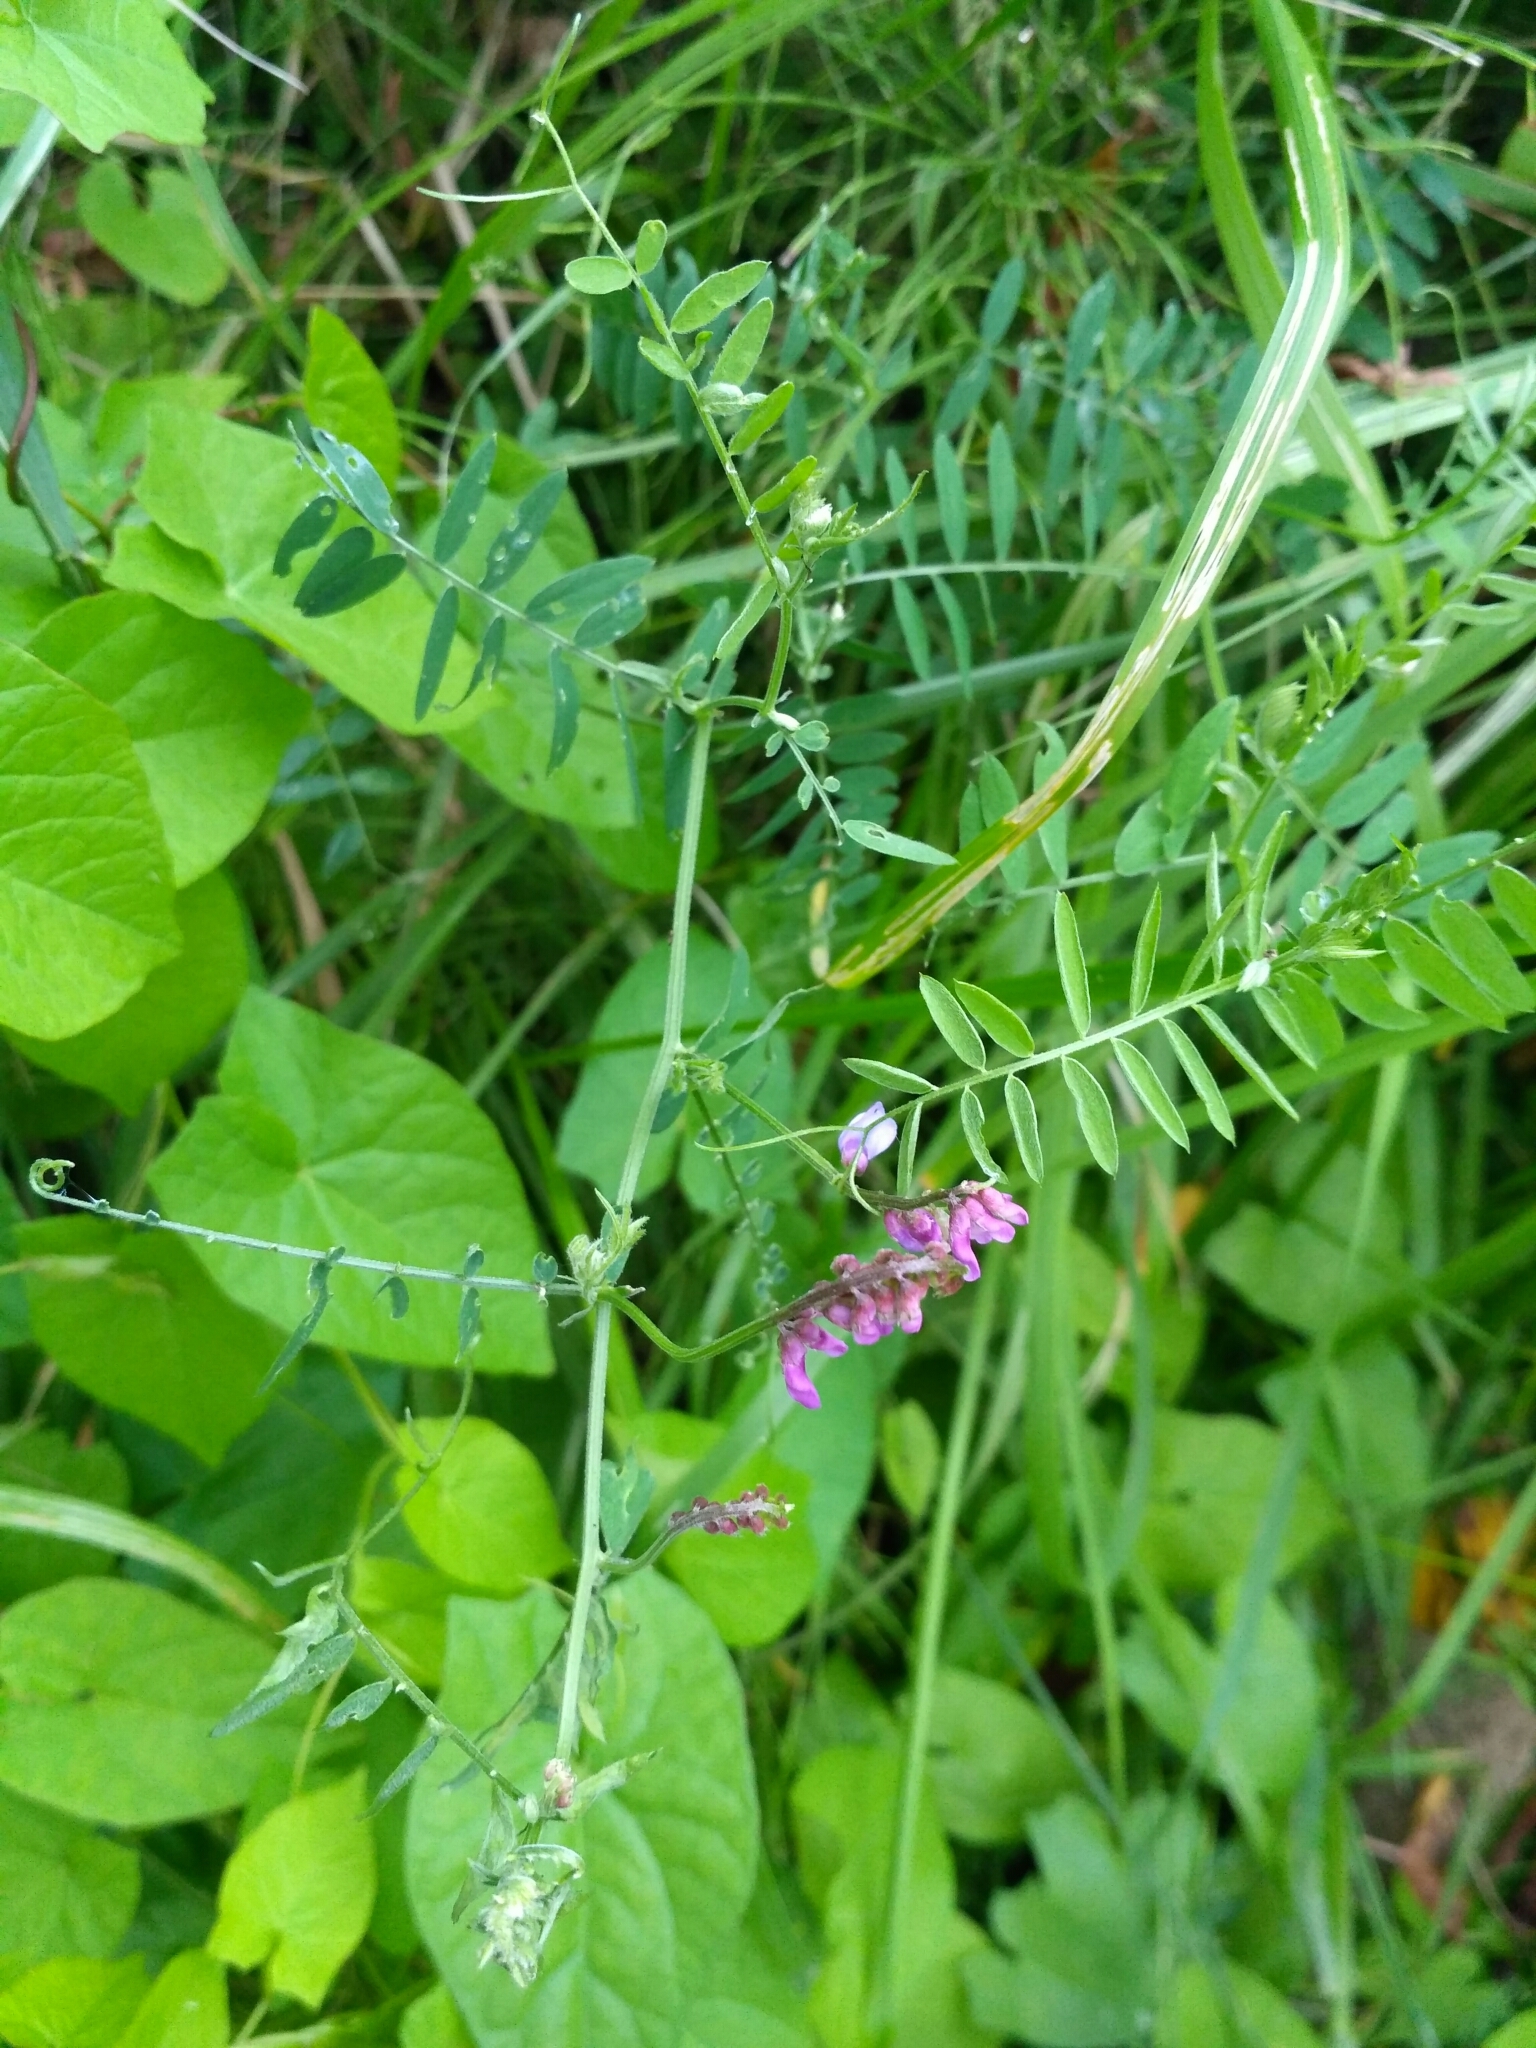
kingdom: Plantae
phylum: Tracheophyta
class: Magnoliopsida
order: Fabales
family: Fabaceae
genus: Vicia
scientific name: Vicia cracca
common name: Bird vetch
